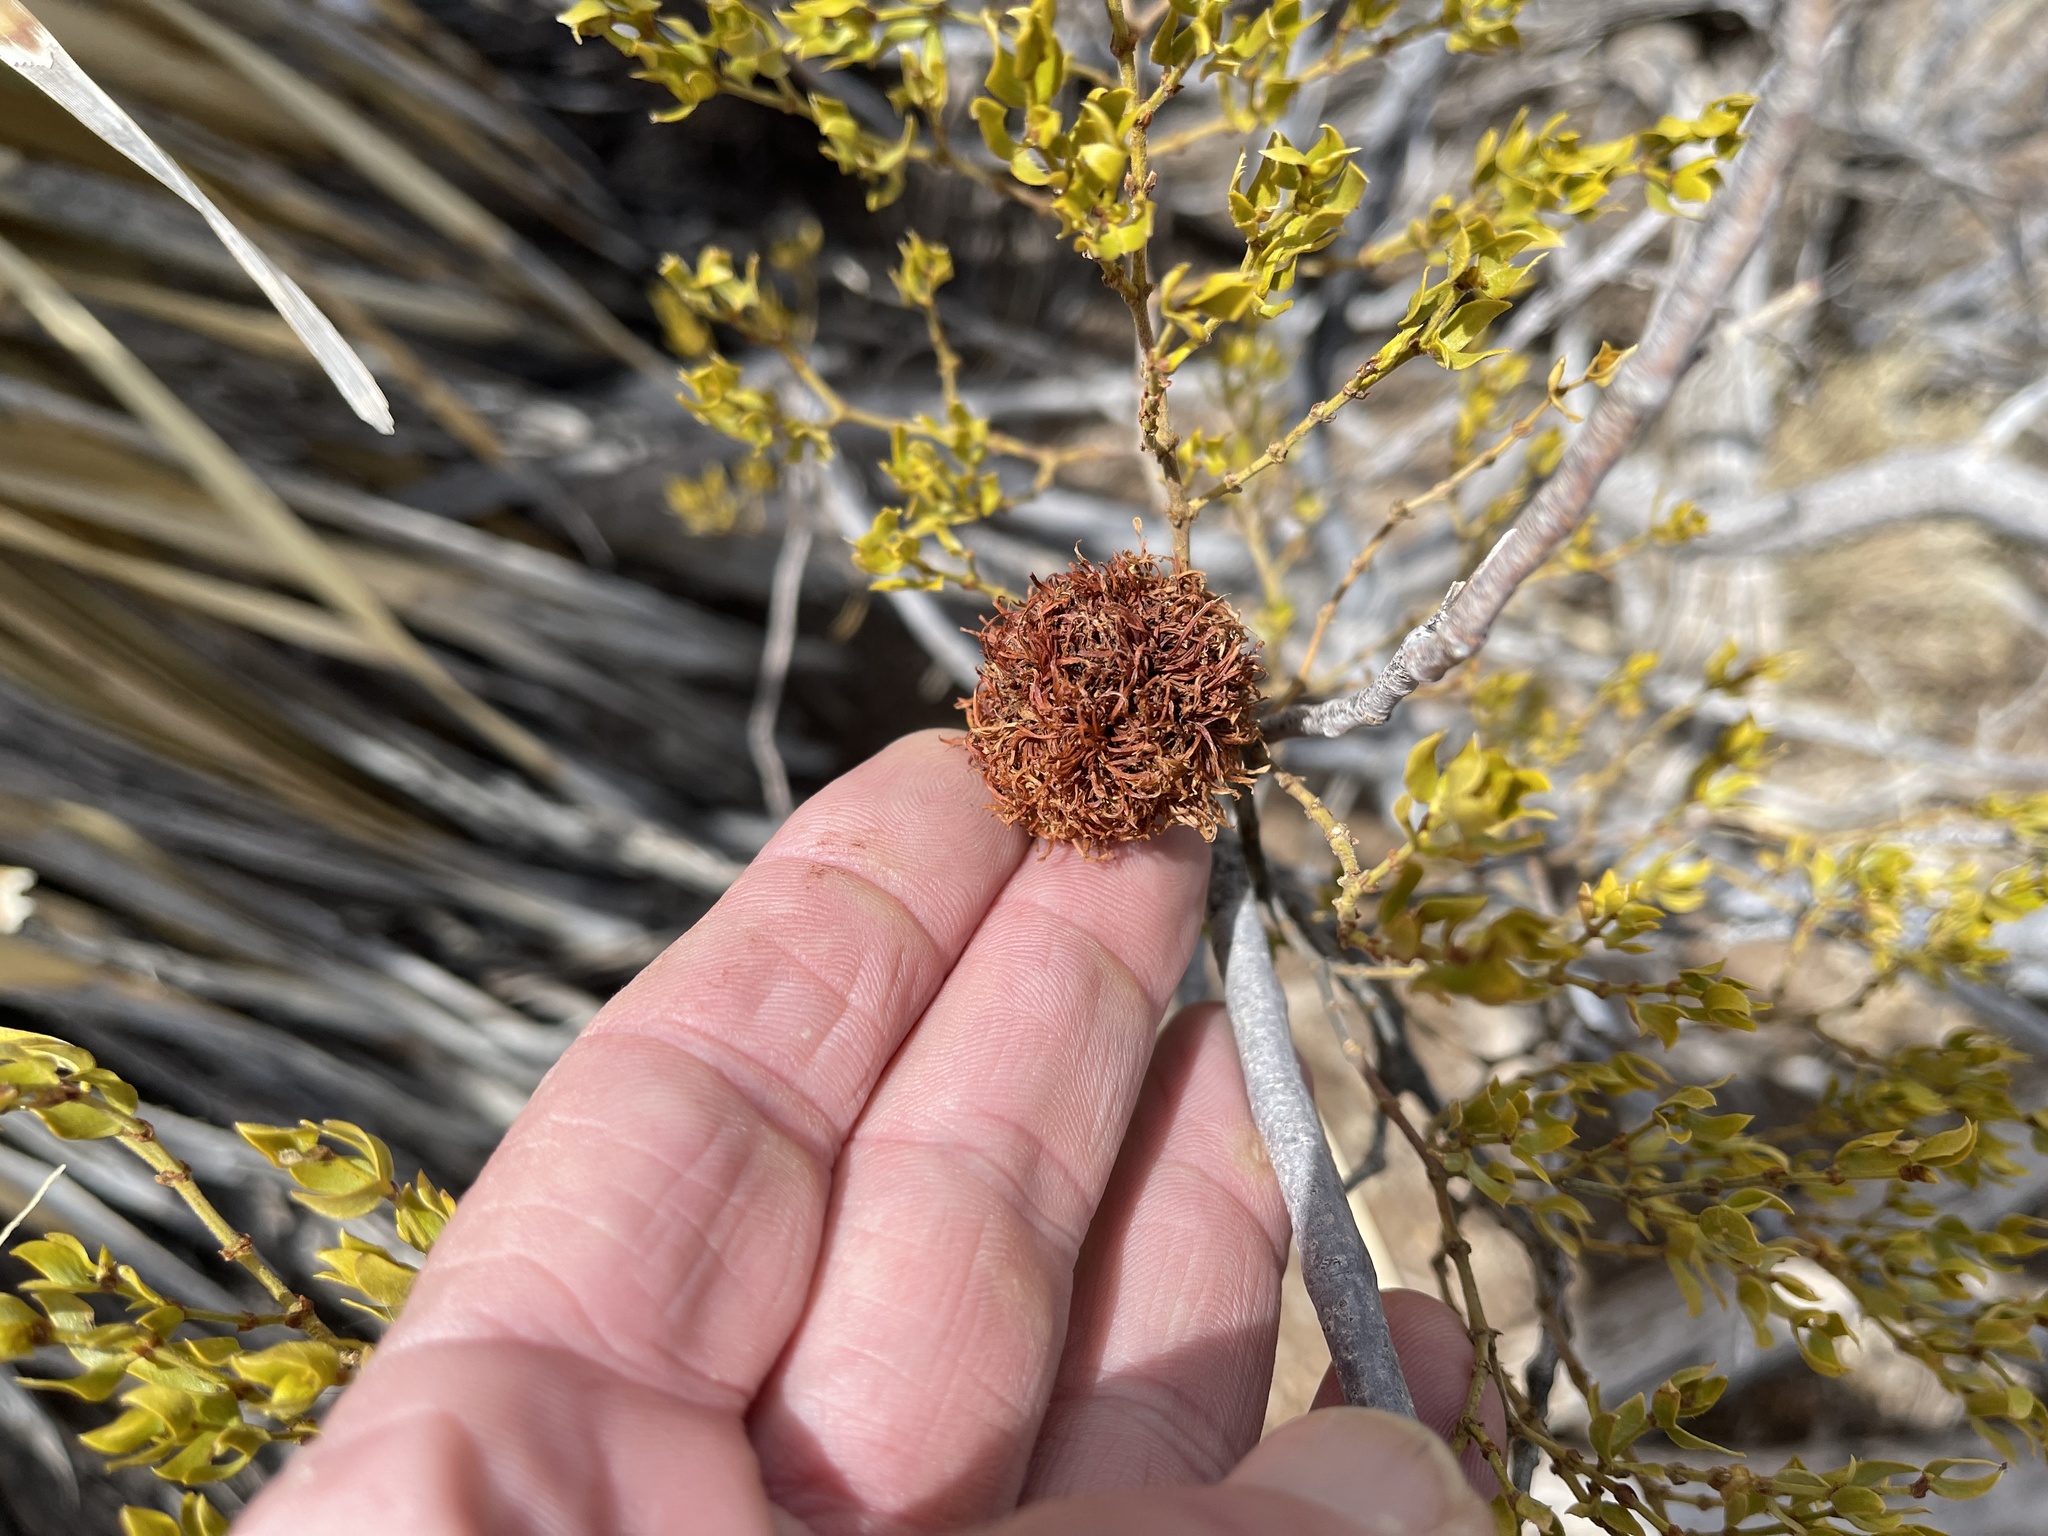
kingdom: Animalia
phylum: Arthropoda
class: Insecta
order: Diptera
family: Cecidomyiidae
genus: Asphondylia
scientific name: Asphondylia auripila
